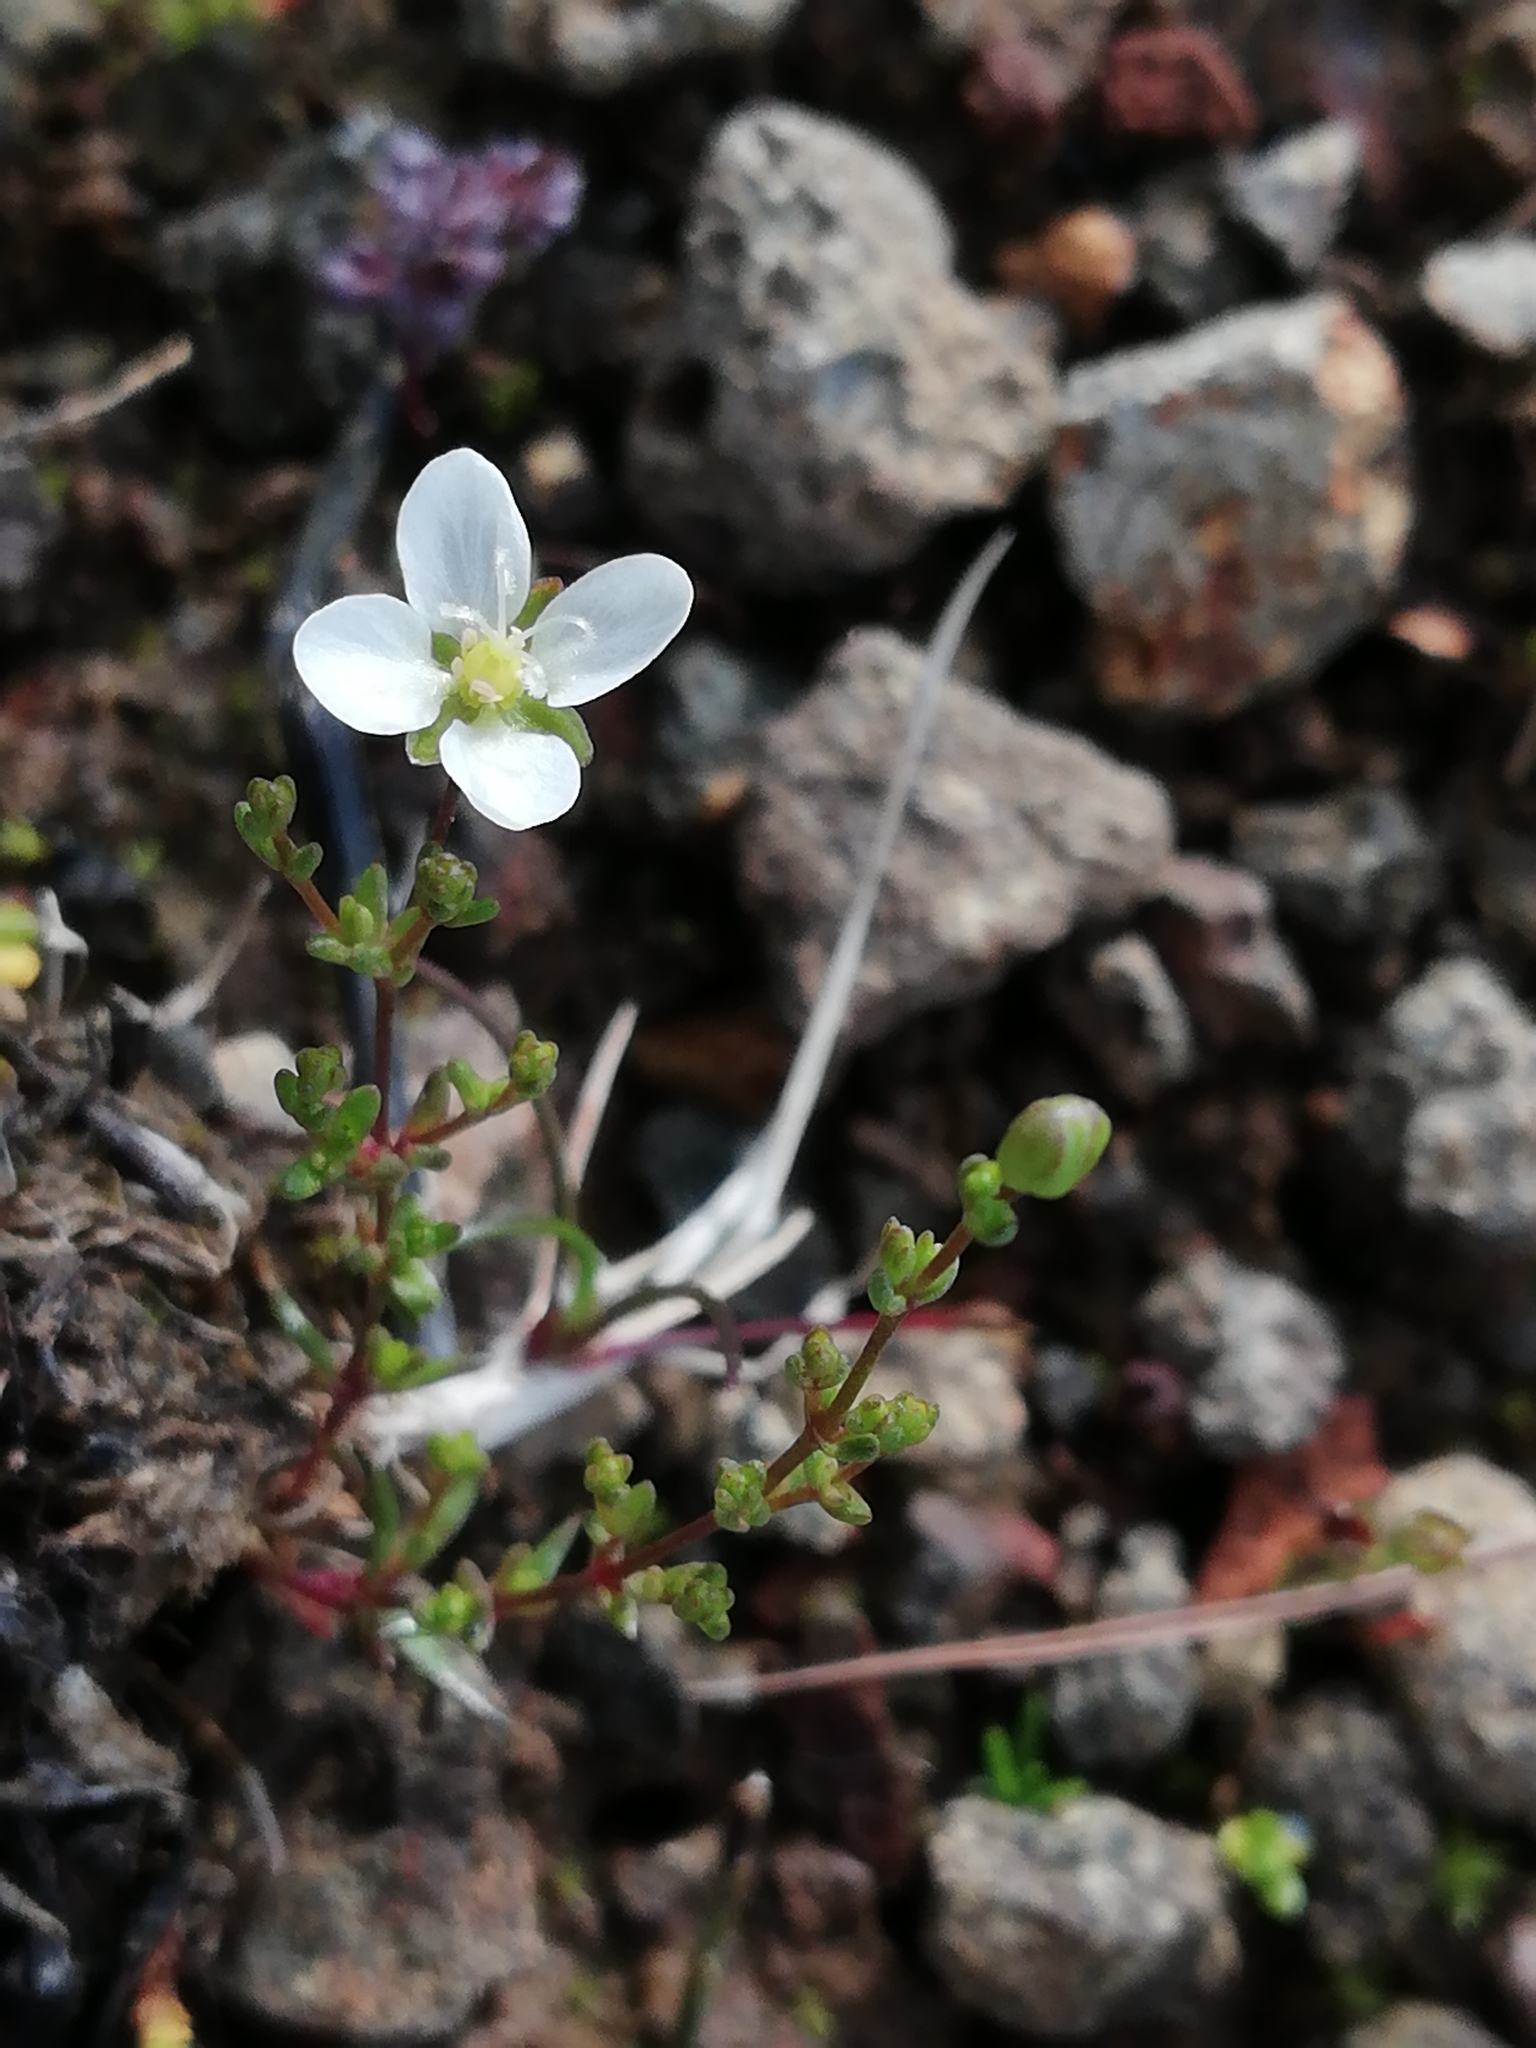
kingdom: Plantae
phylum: Tracheophyta
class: Magnoliopsida
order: Caryophyllales
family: Caryophyllaceae
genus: Sagina
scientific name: Sagina nodosa
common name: Knotted pearlwort
